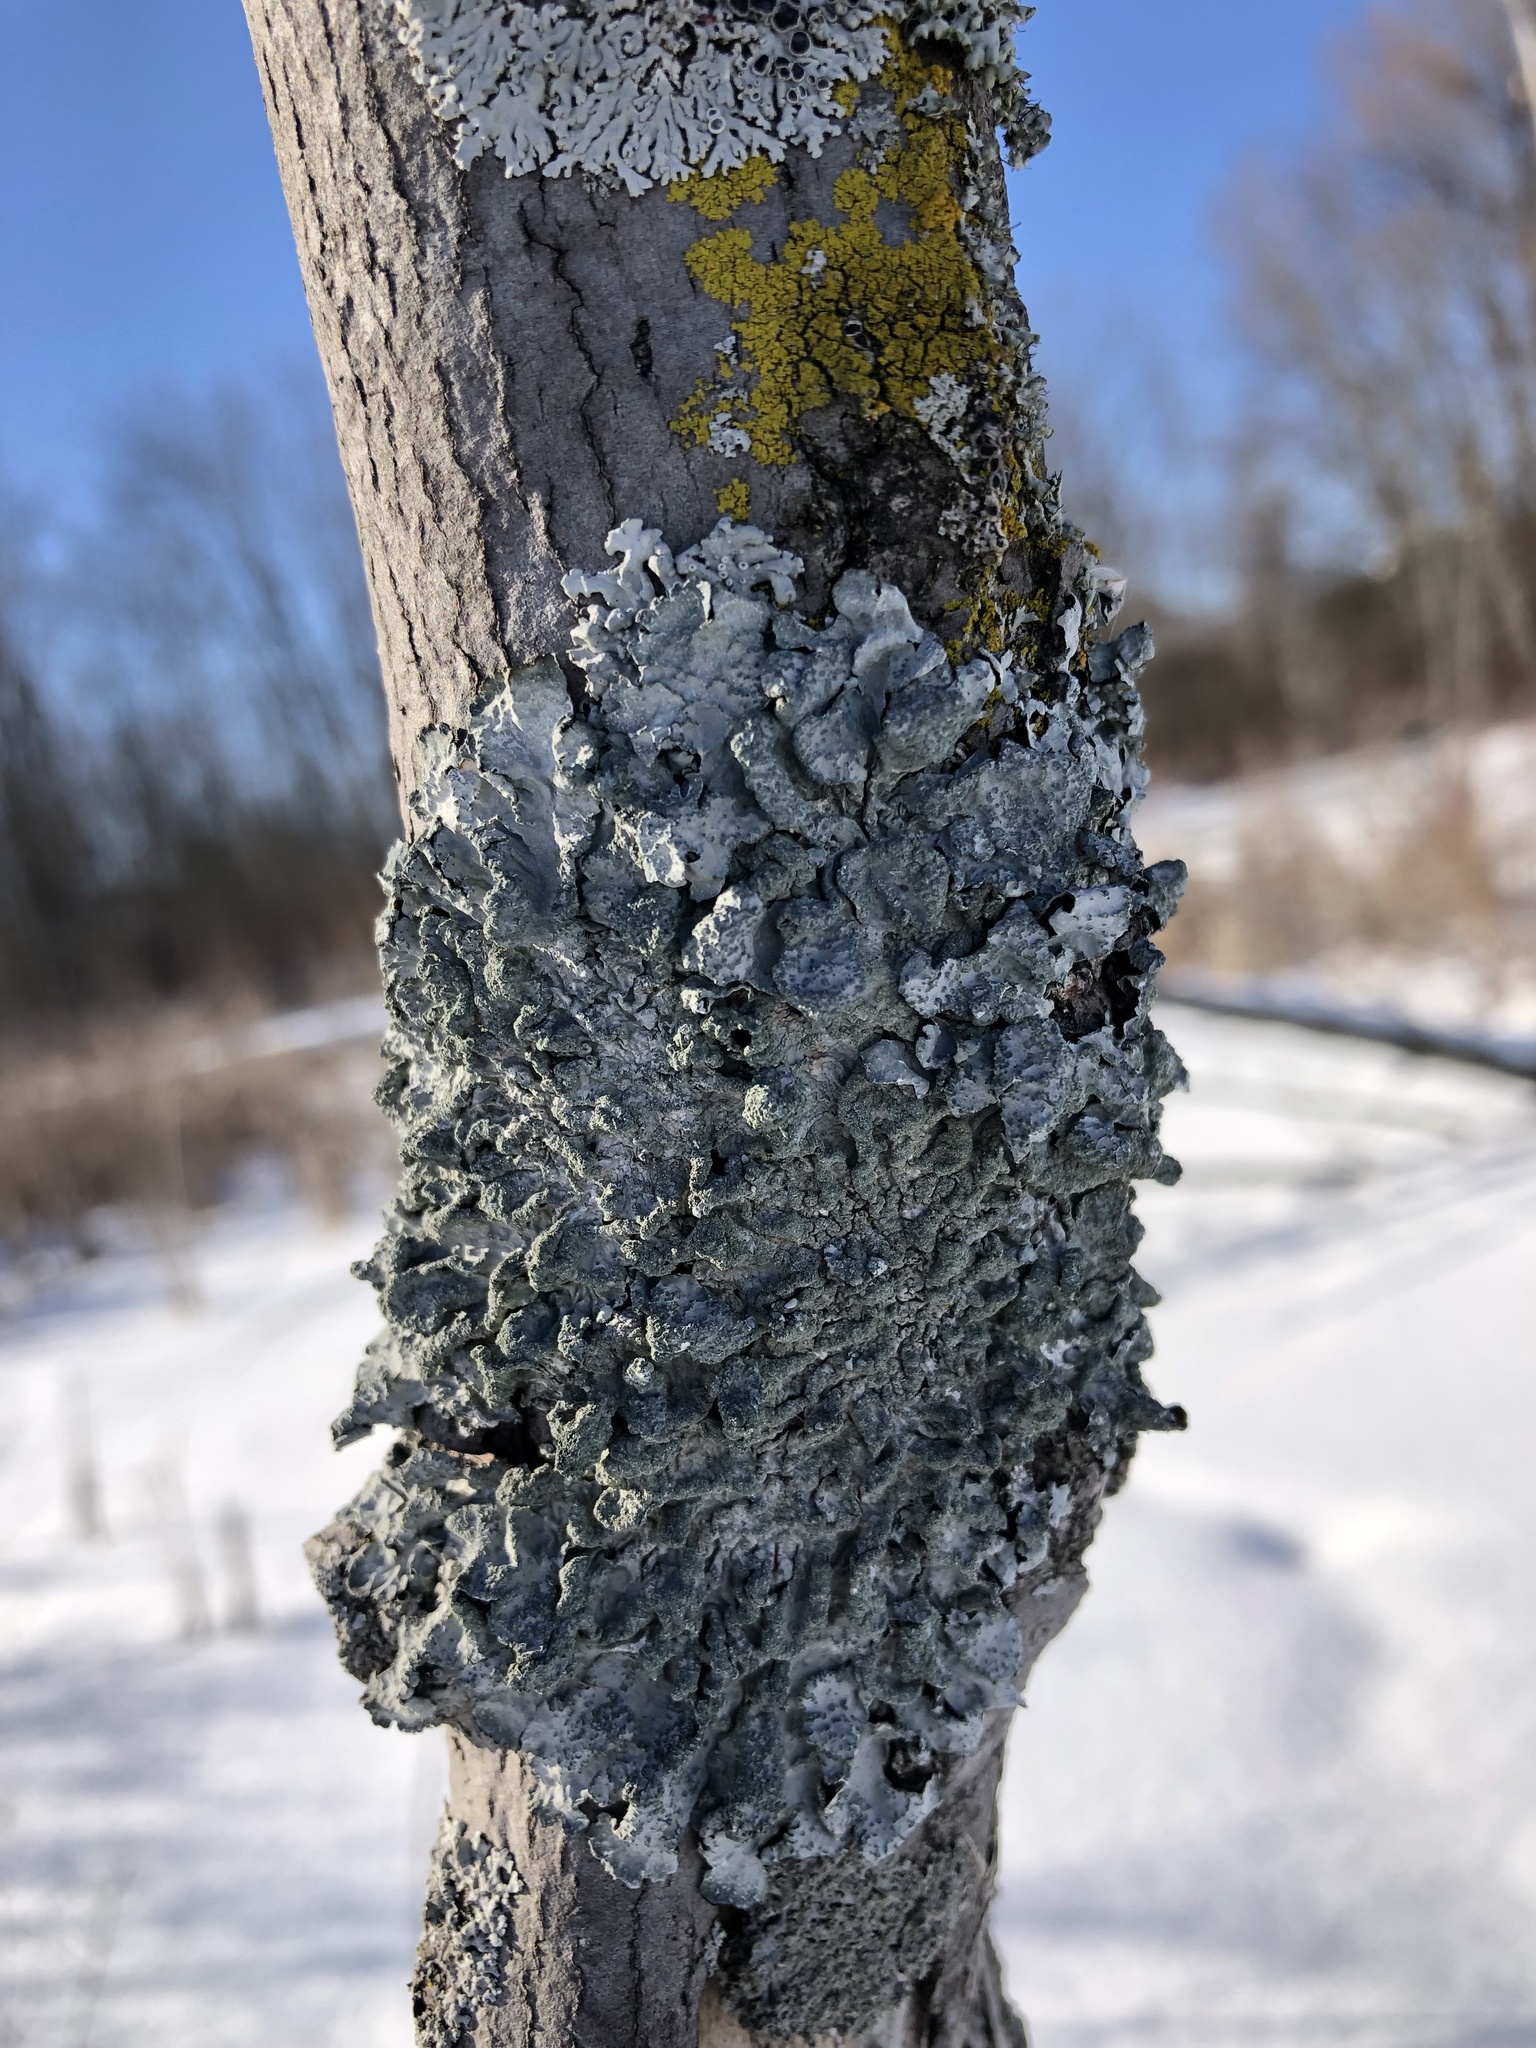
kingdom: Fungi
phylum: Ascomycota
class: Lecanoromycetes
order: Lecanorales
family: Parmeliaceae
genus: Parmelia
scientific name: Parmelia sulcata
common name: Netted shield lichen
